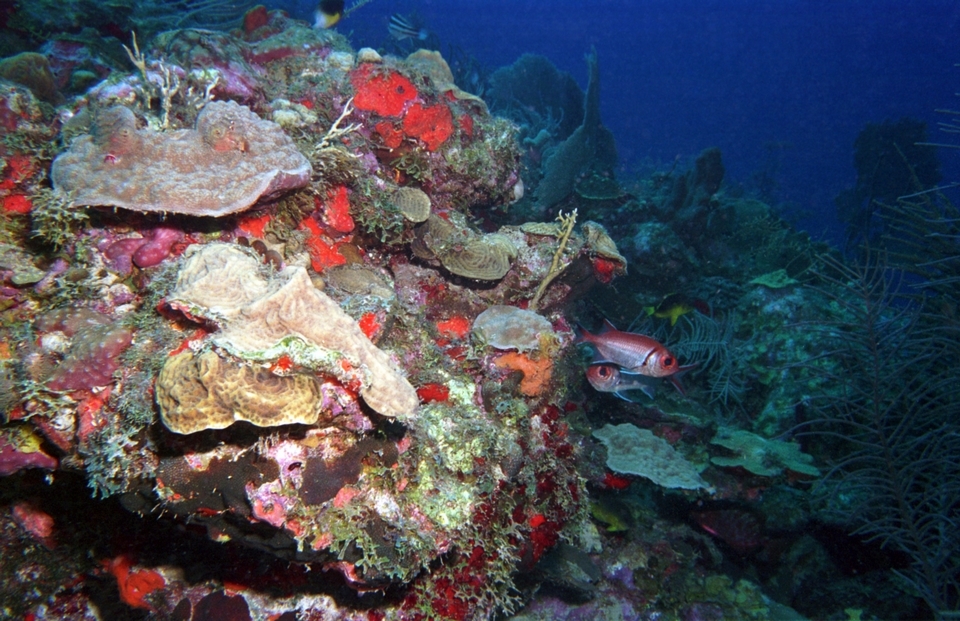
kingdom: Animalia
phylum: Chordata
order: Beryciformes
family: Holocentridae
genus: Myripristis
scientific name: Myripristis jacobus
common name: Blackbar soldierfish
